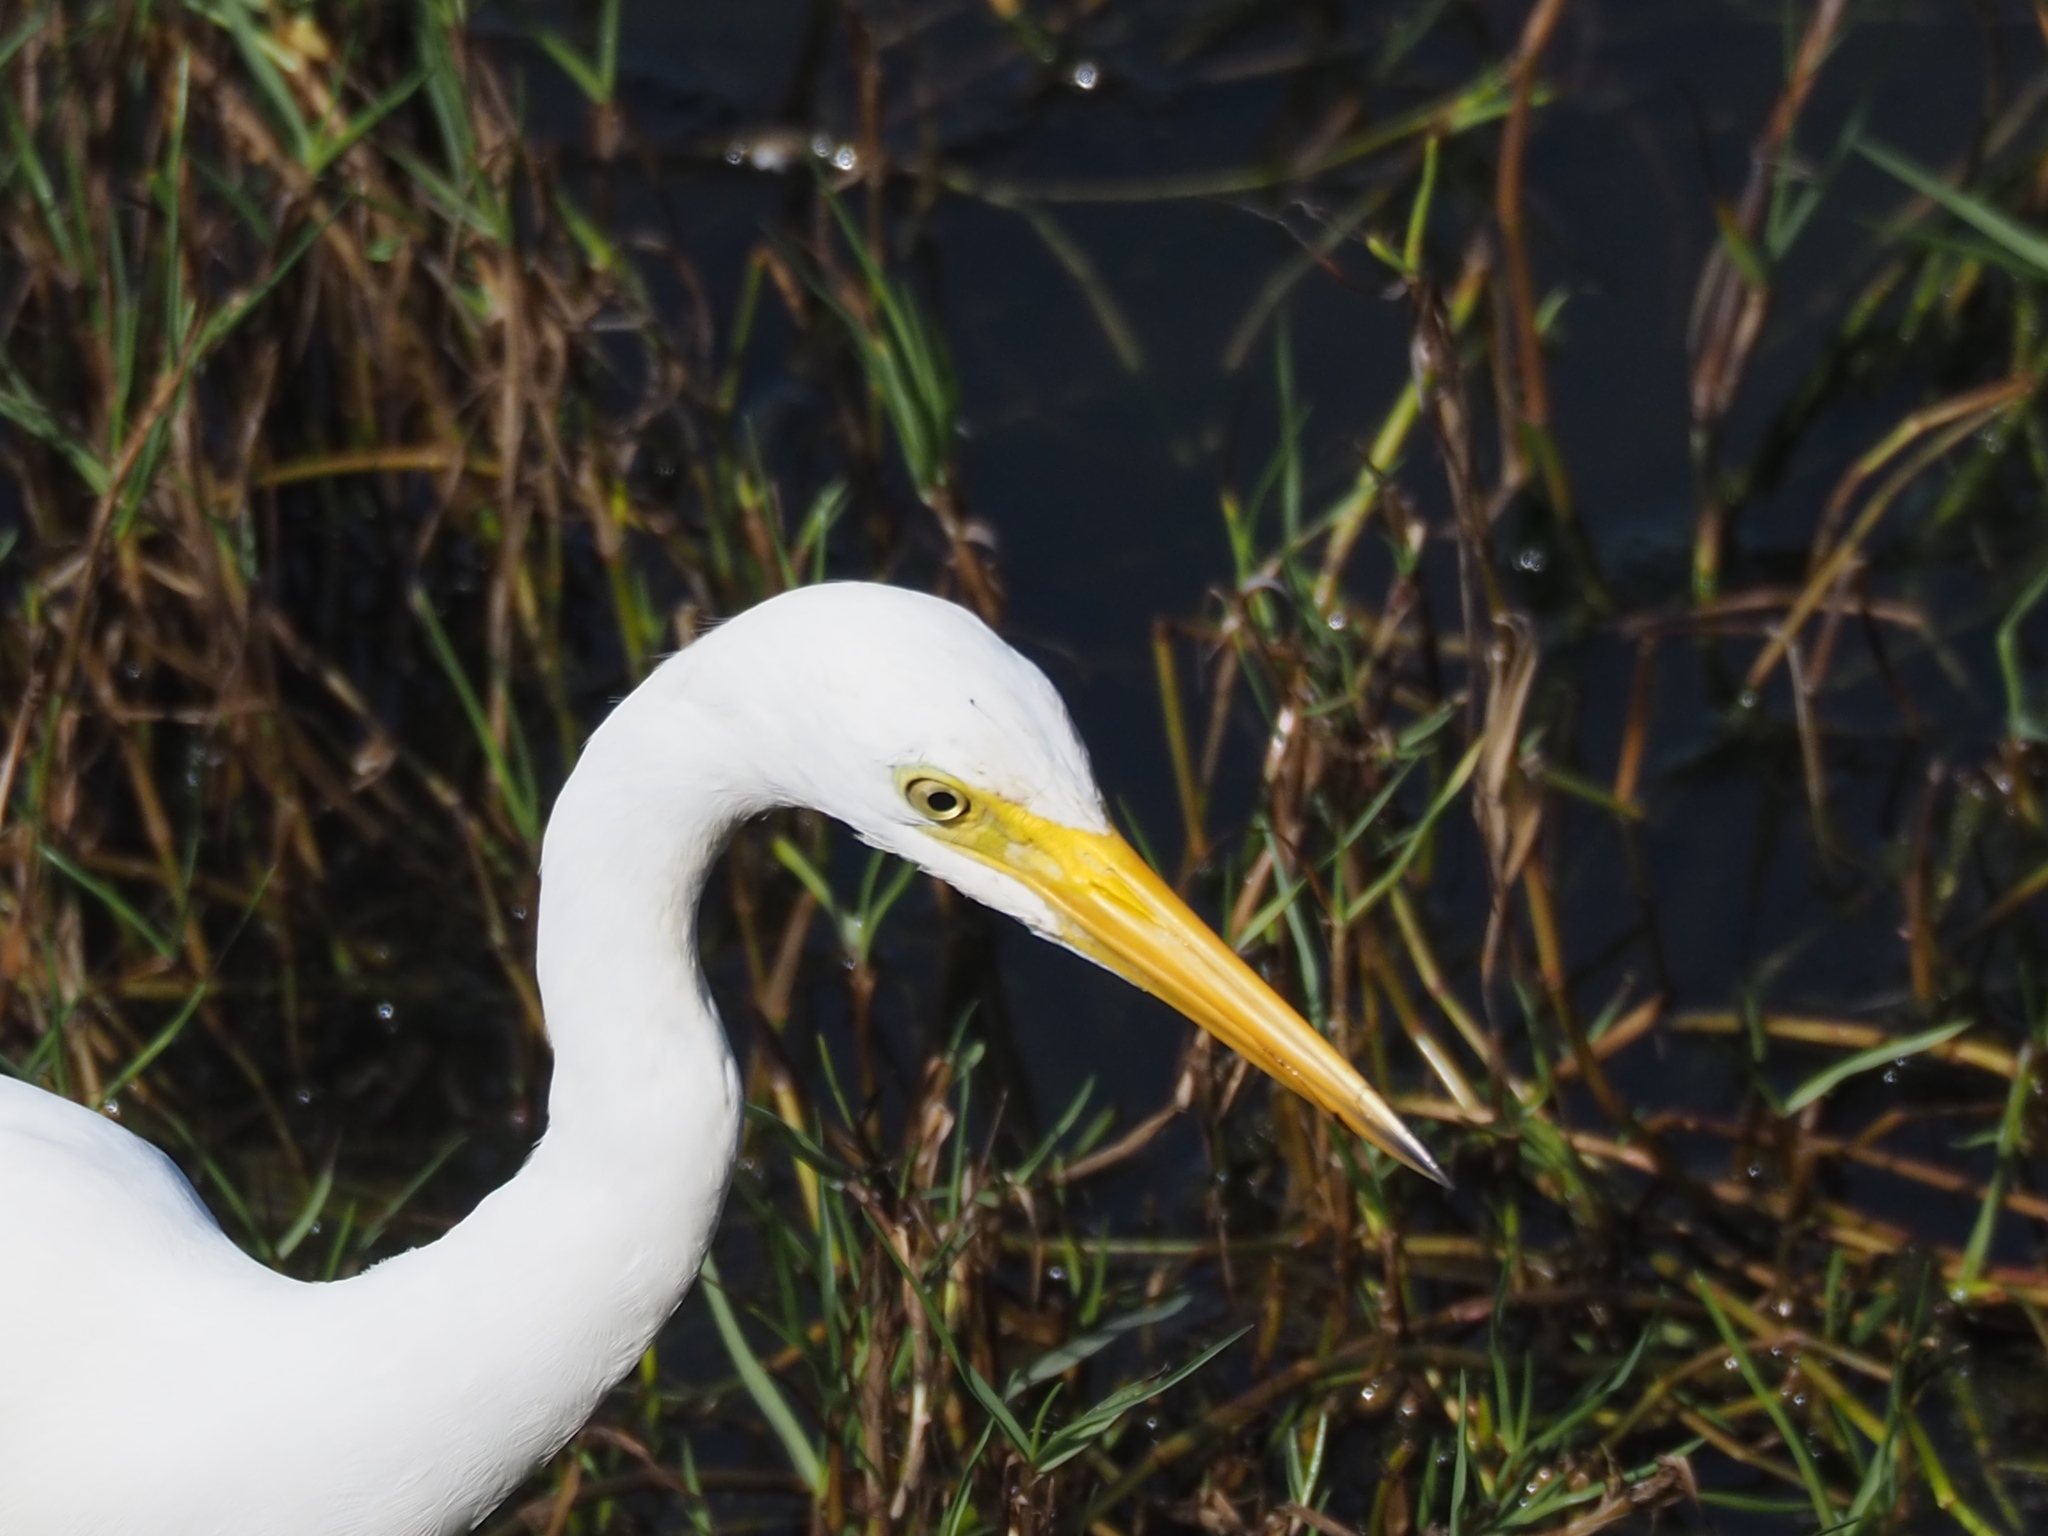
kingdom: Animalia
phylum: Chordata
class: Aves
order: Pelecaniformes
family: Ardeidae
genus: Egretta
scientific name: Egretta intermedia
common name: Intermediate egret
